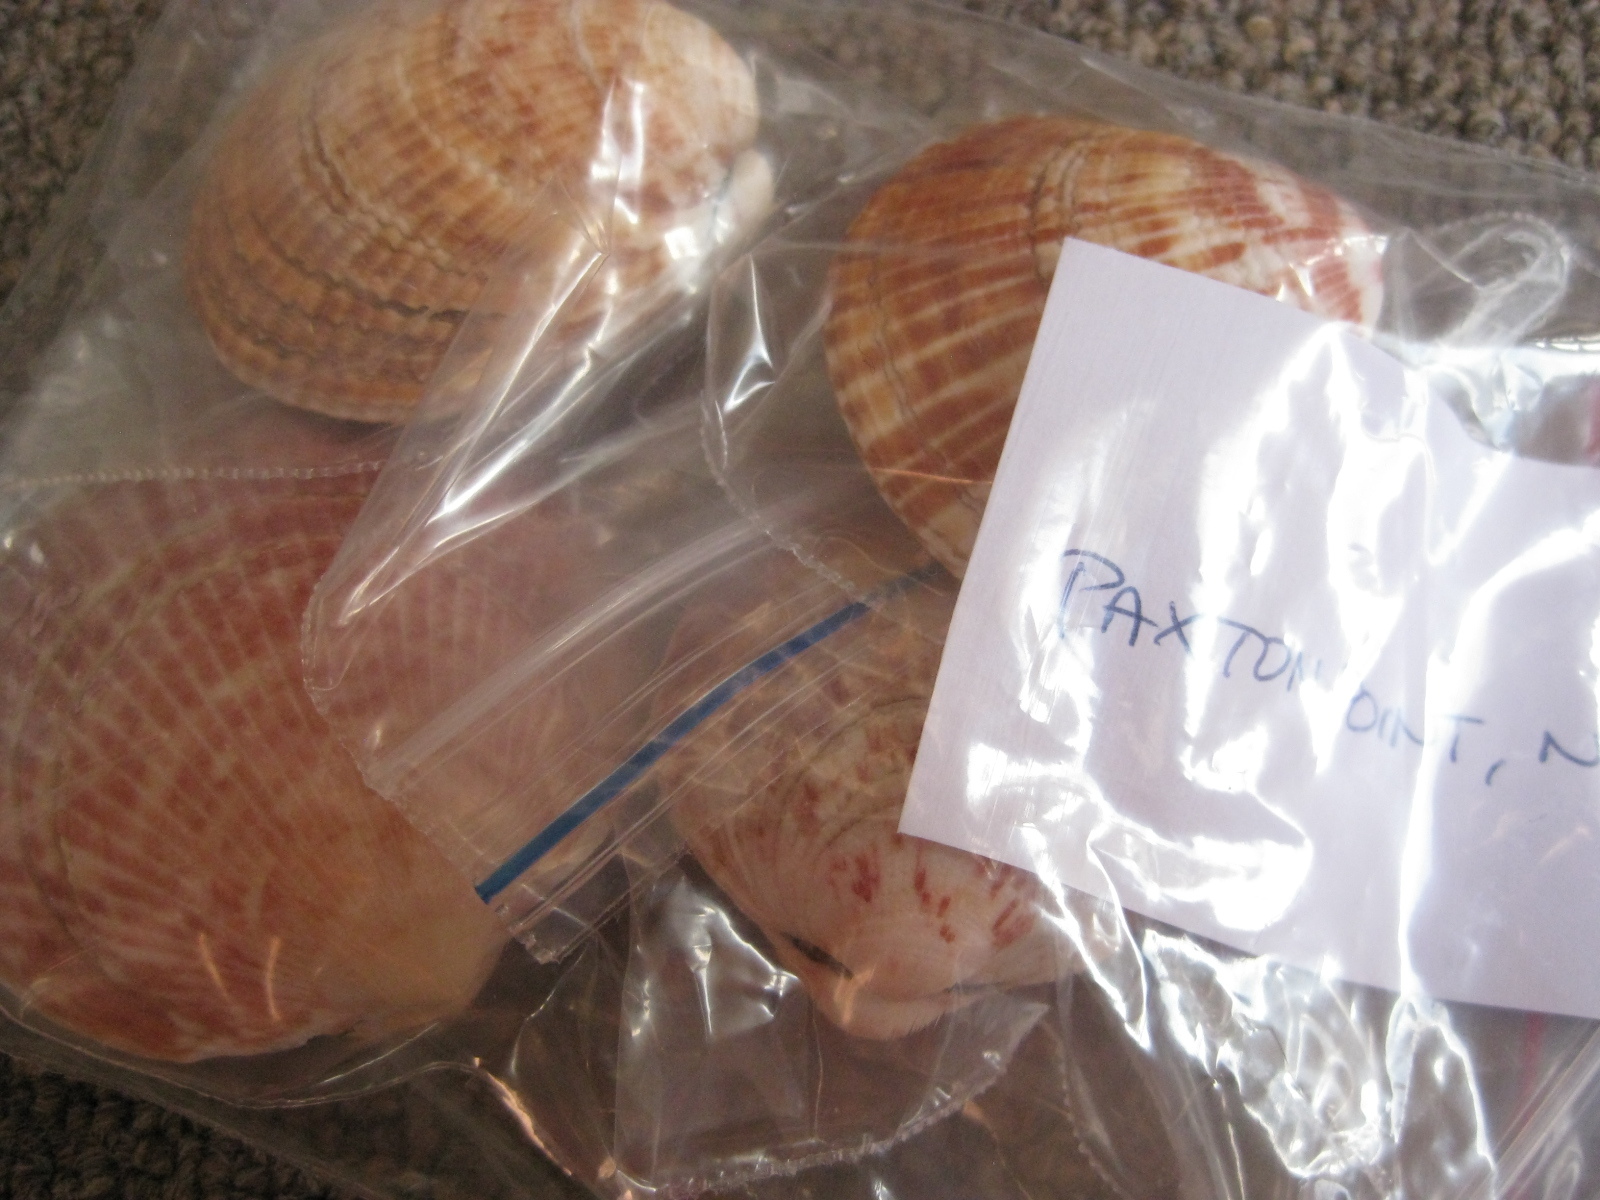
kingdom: Animalia
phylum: Mollusca
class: Bivalvia
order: Arcida
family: Glycymerididae
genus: Tucetona
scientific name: Tucetona laticostata
